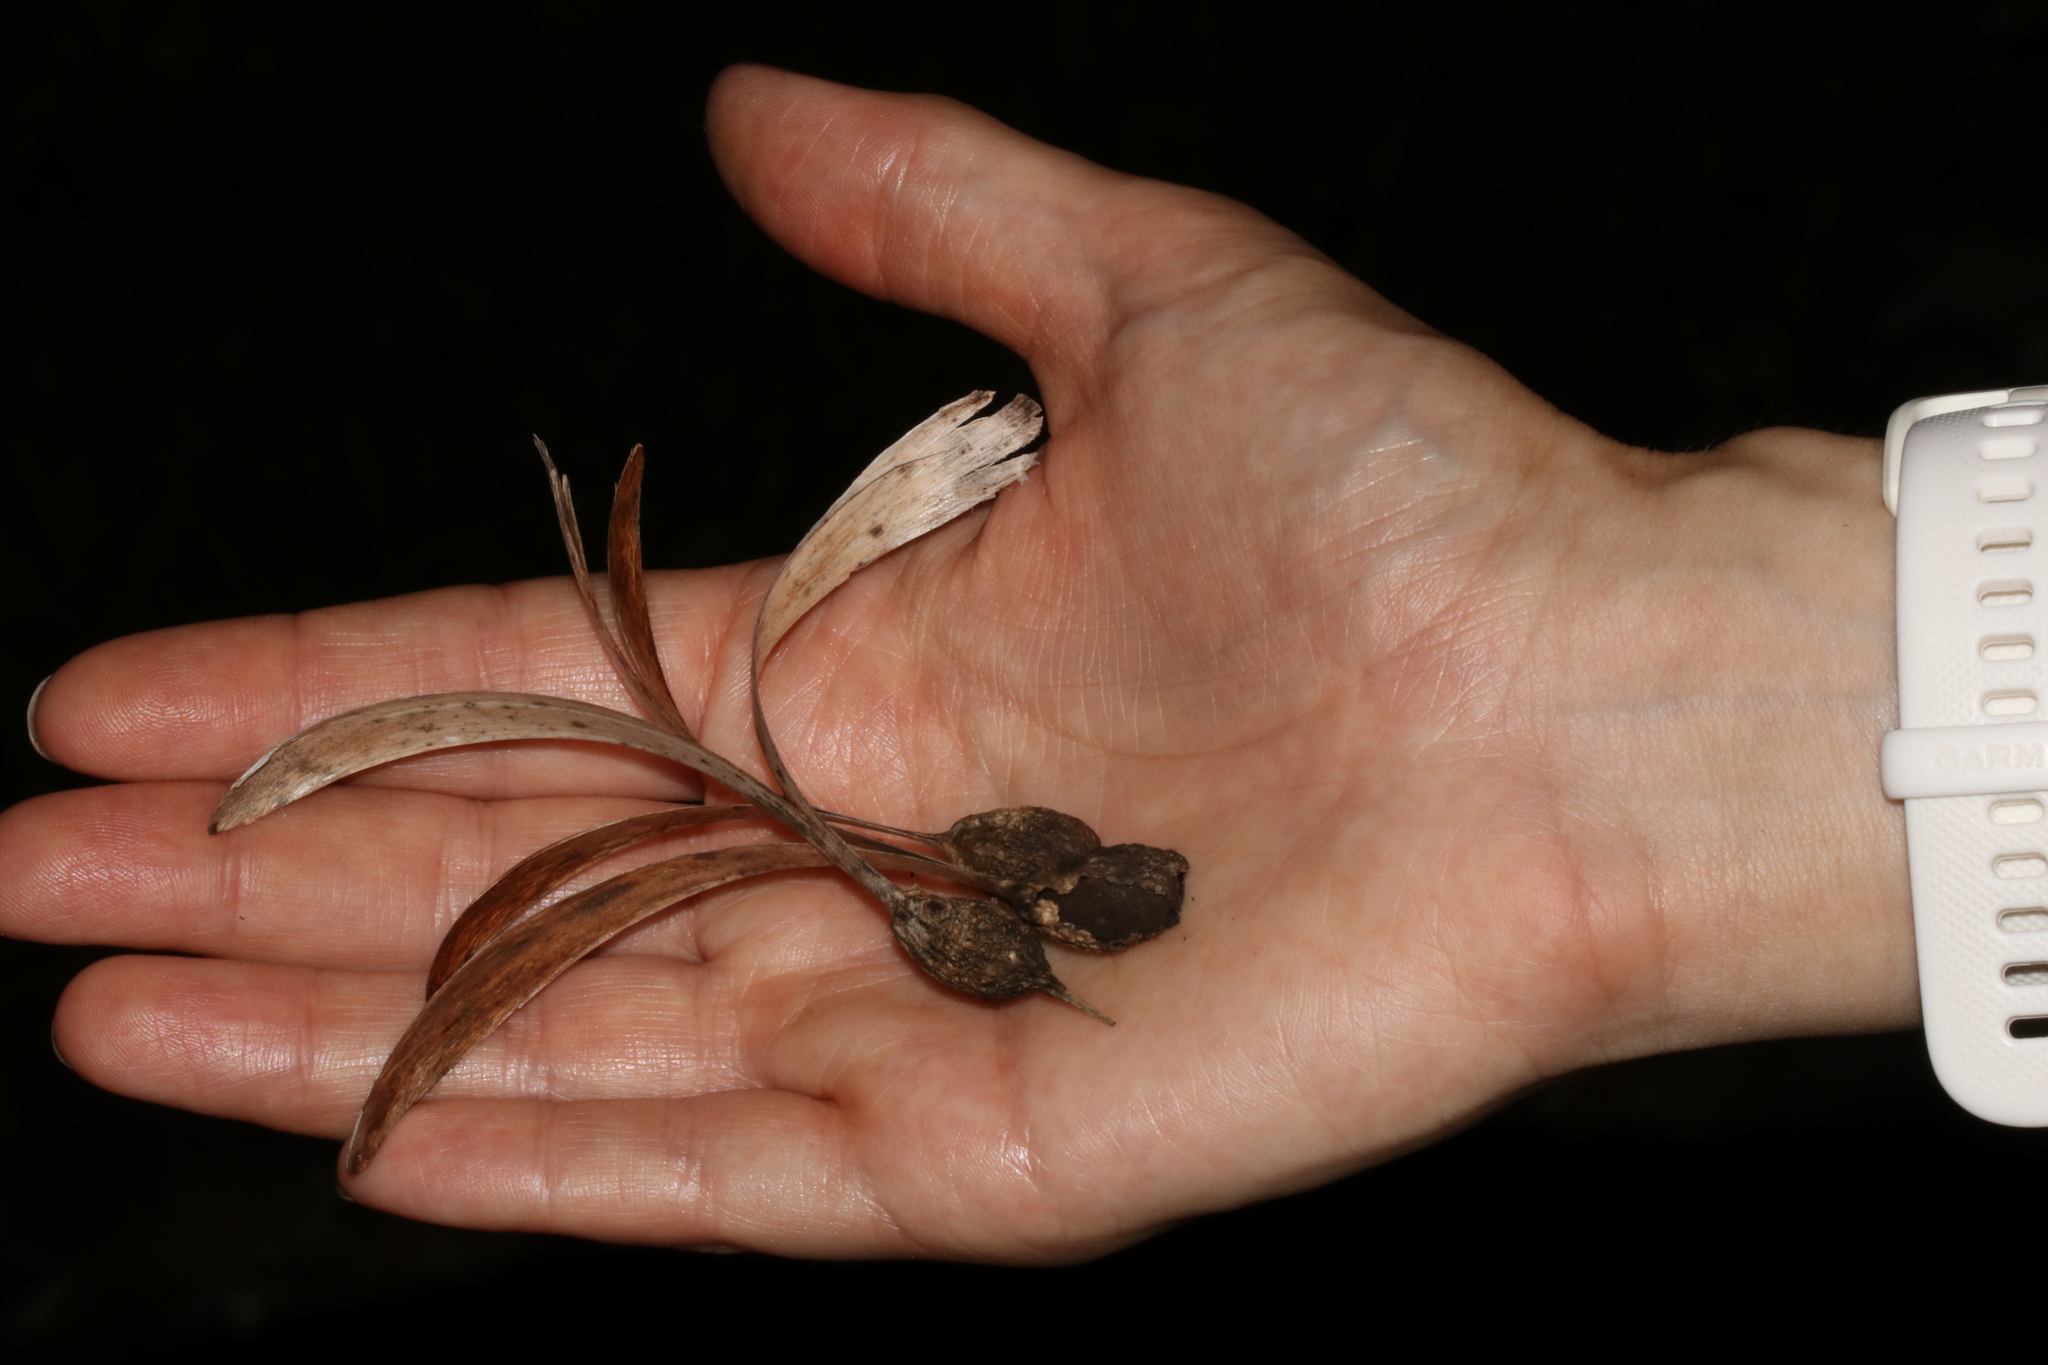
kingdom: Plantae
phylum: Tracheophyta
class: Magnoliopsida
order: Laurales
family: Hernandiaceae
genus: Gyrocarpus
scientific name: Gyrocarpus americanus
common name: Gyro damson
